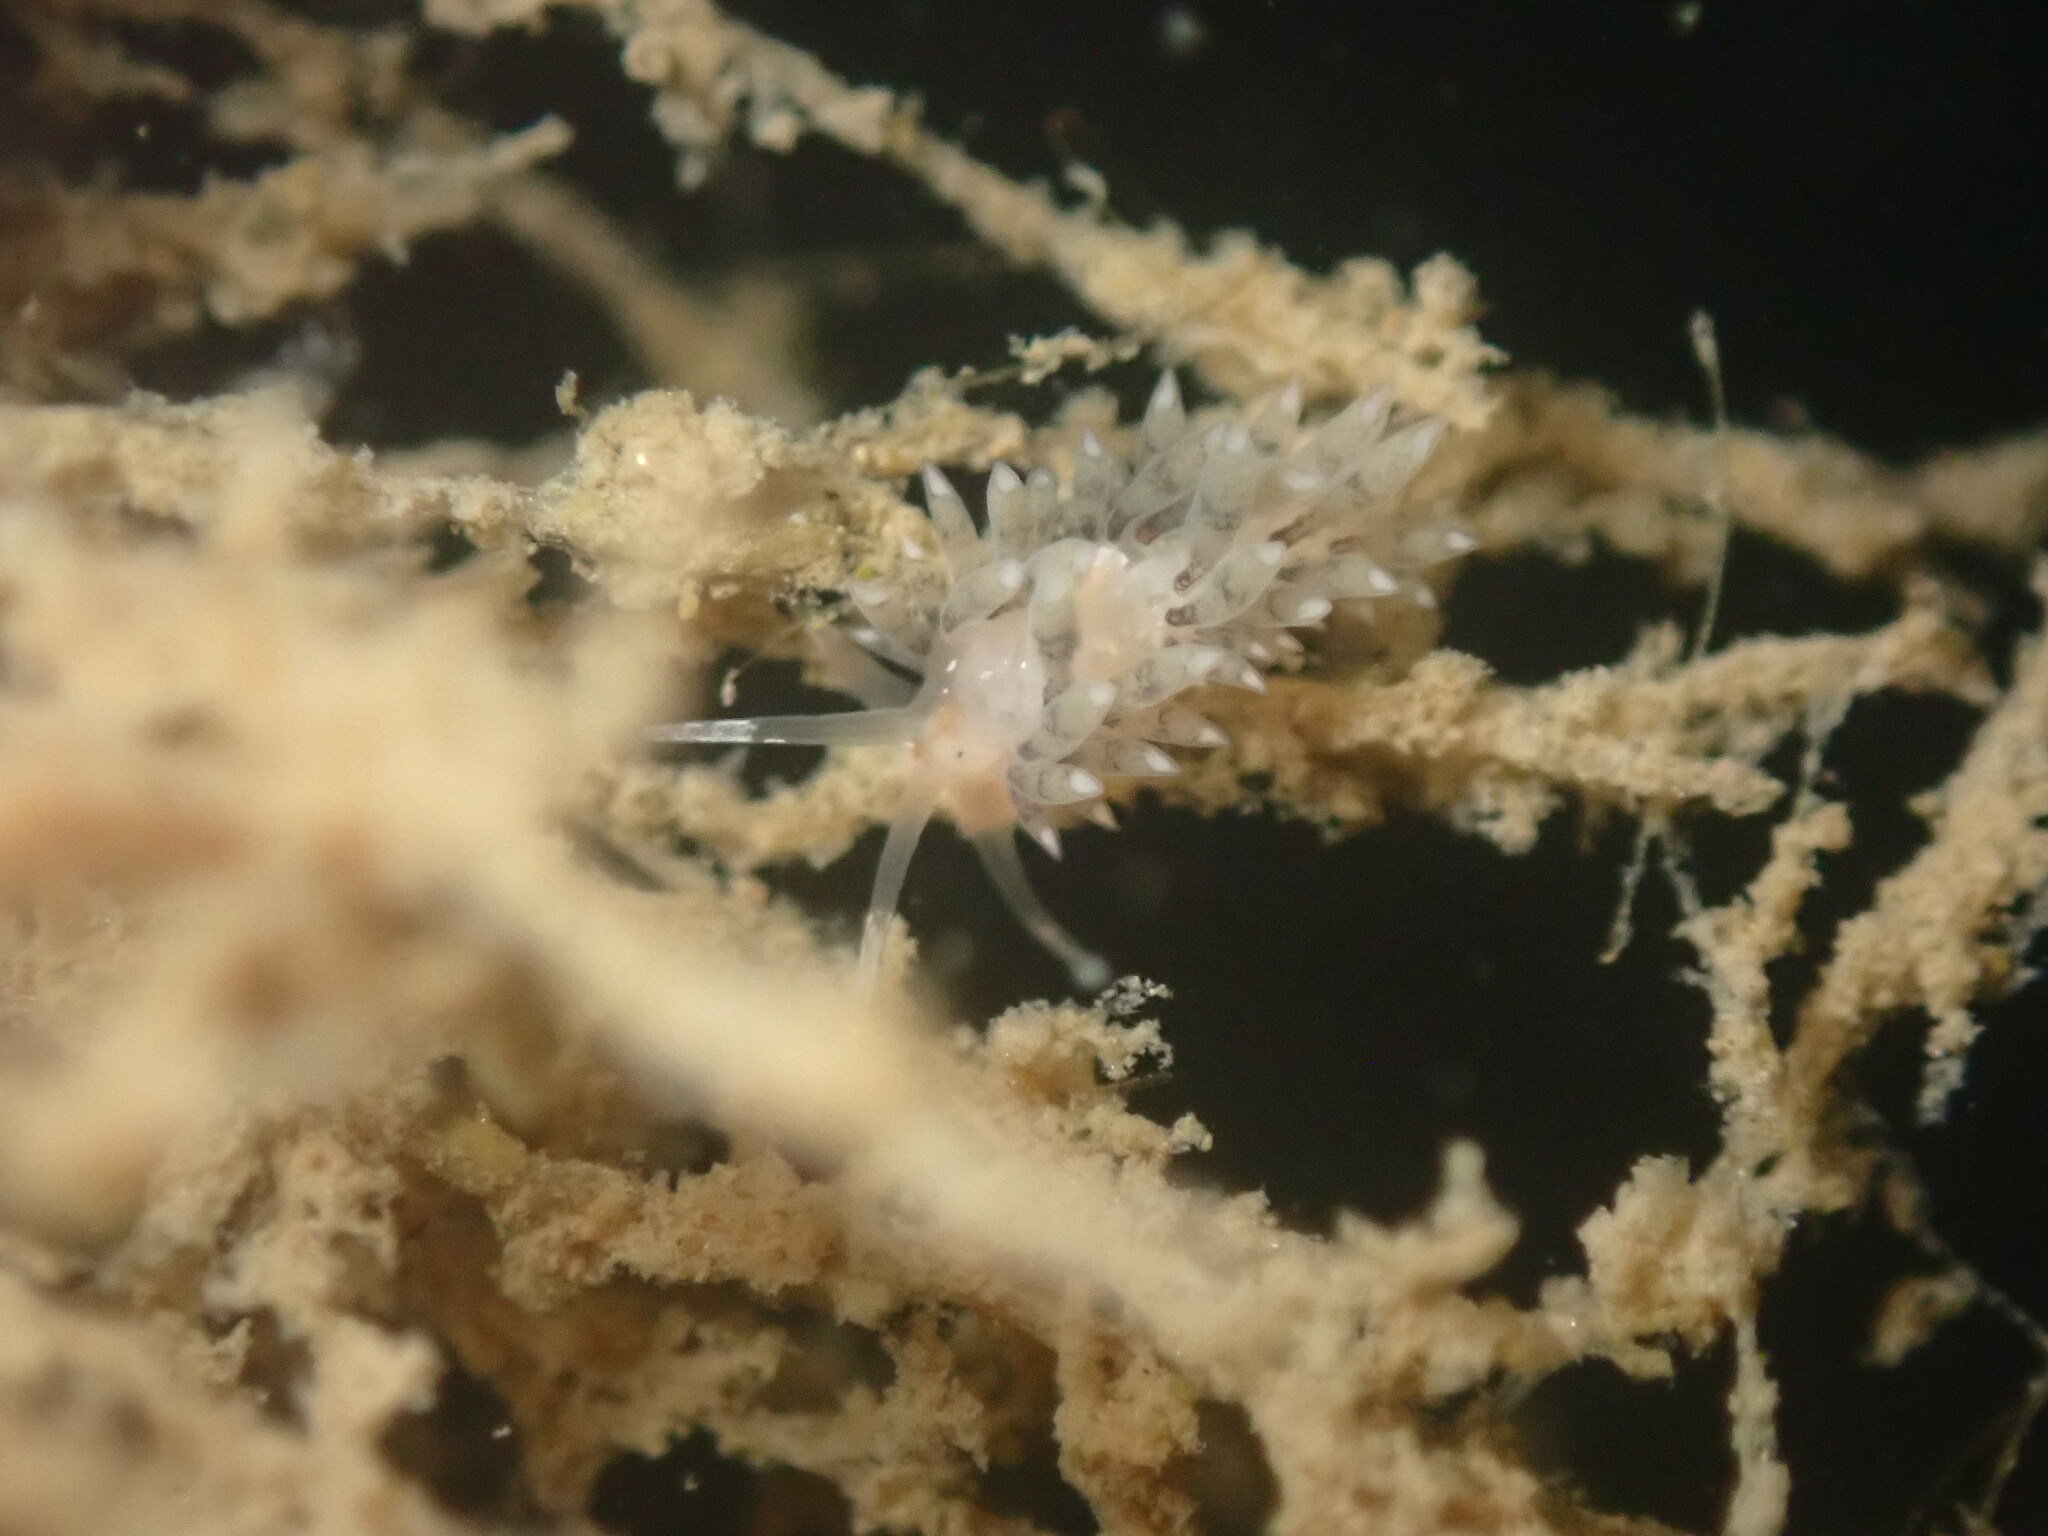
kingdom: Animalia
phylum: Mollusca
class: Gastropoda
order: Nudibranchia
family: Facelinidae
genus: Emarcusia
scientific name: Emarcusia morroensis
